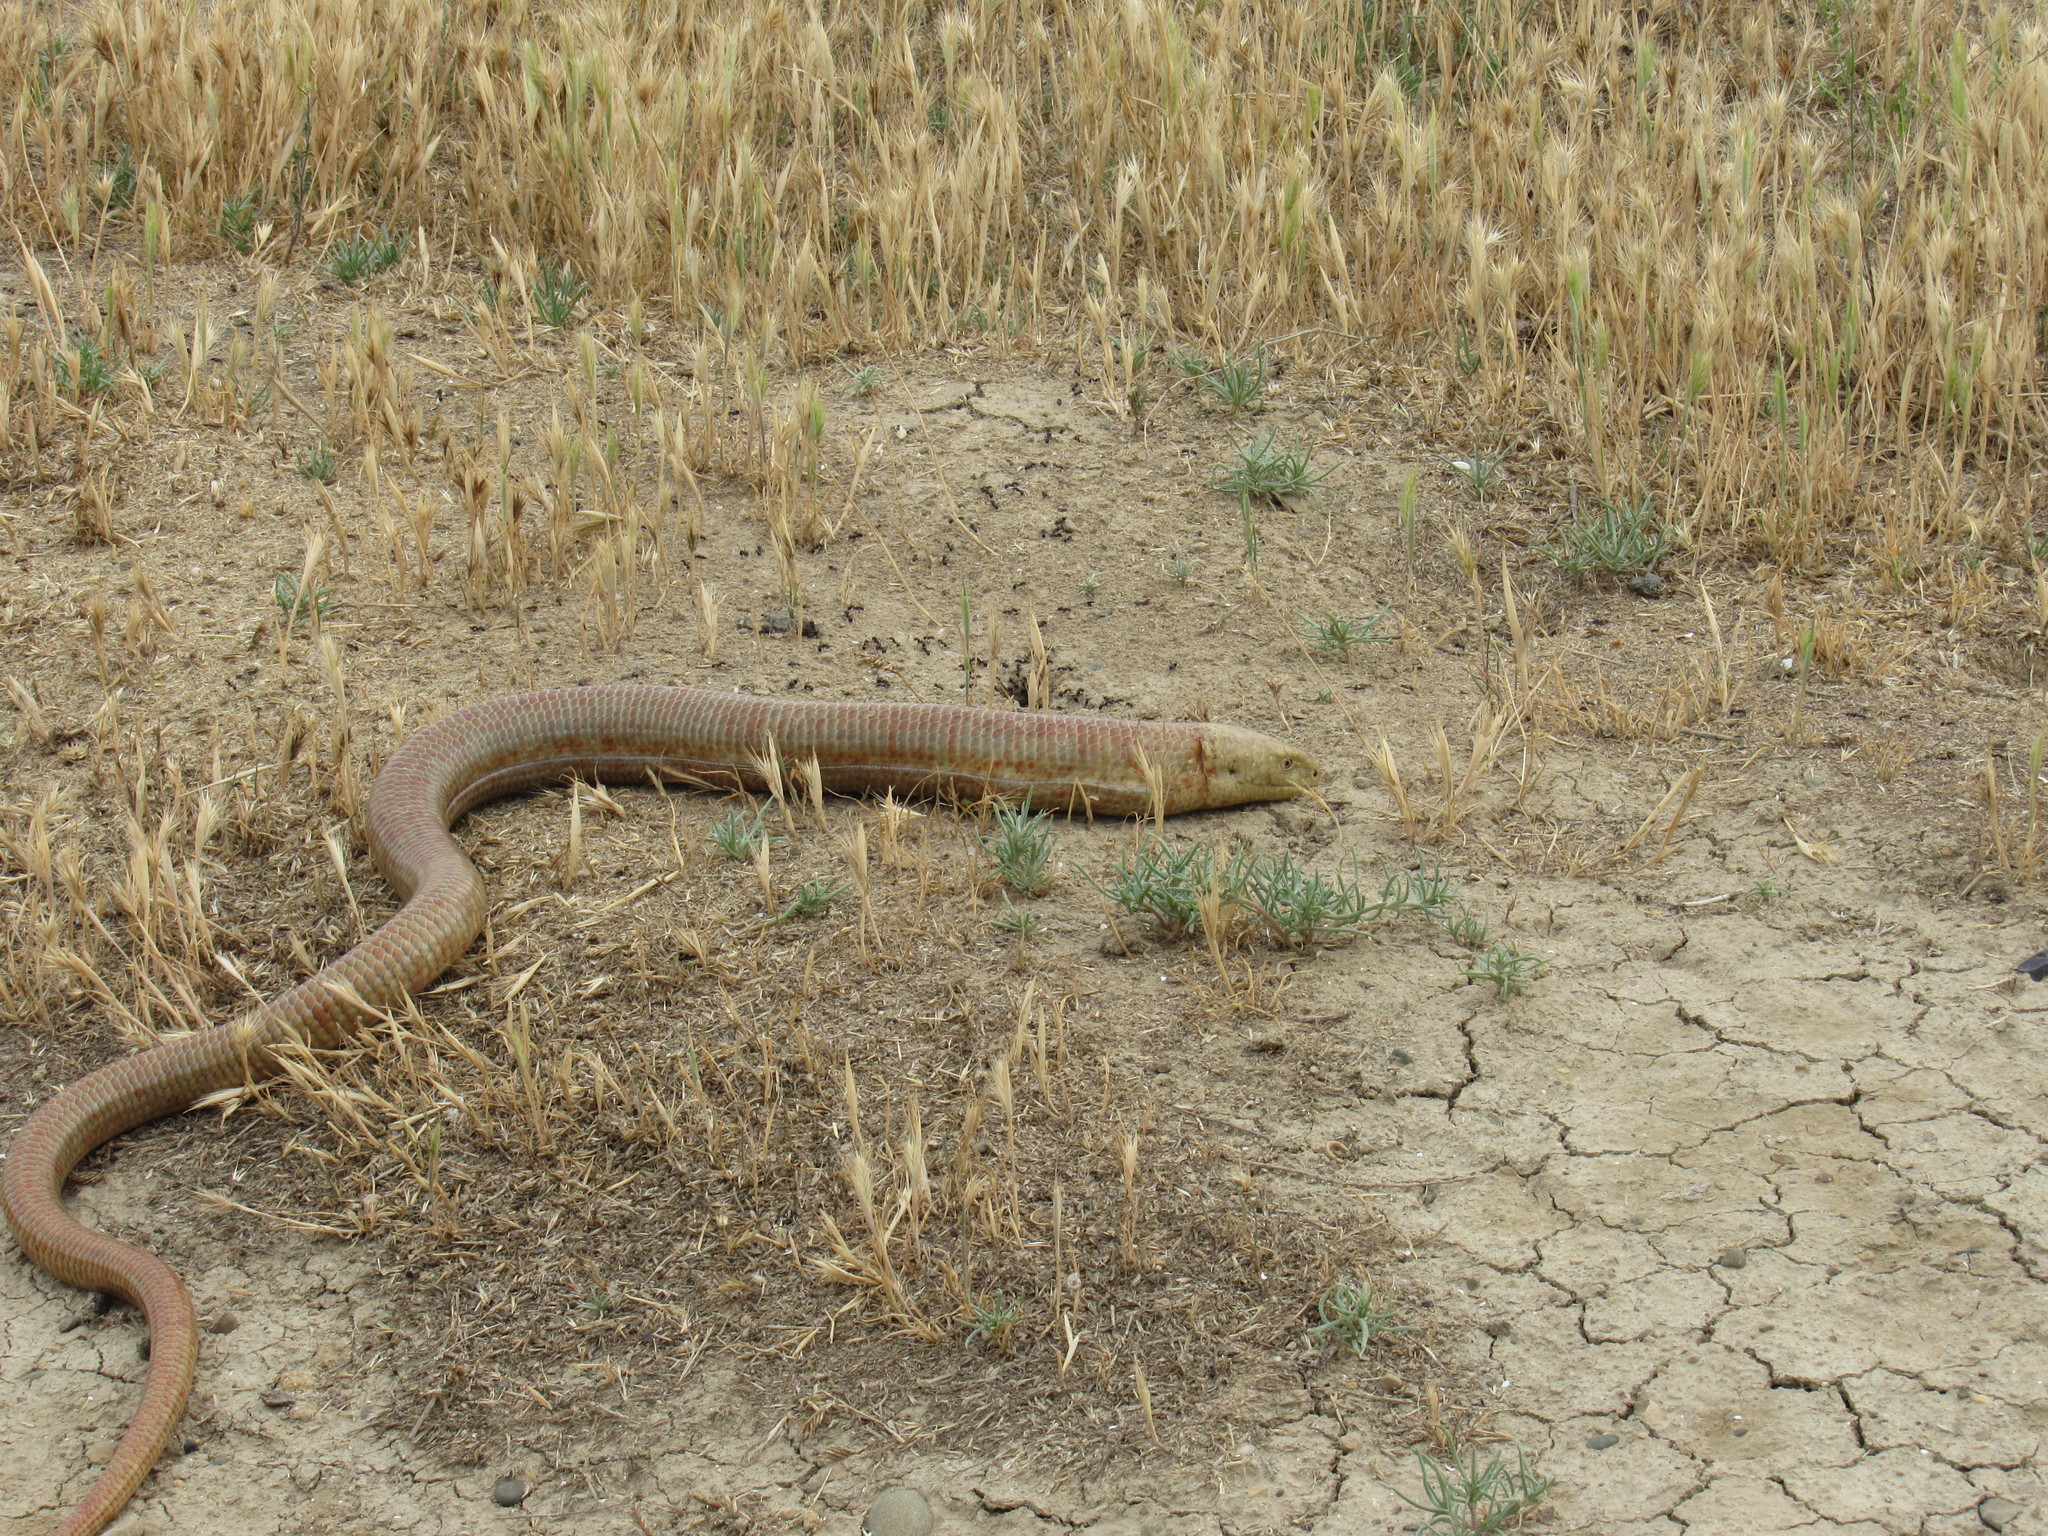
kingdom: Animalia
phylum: Chordata
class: Squamata
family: Anguidae
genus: Pseudopus
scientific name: Pseudopus apodus
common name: European glass lizard
